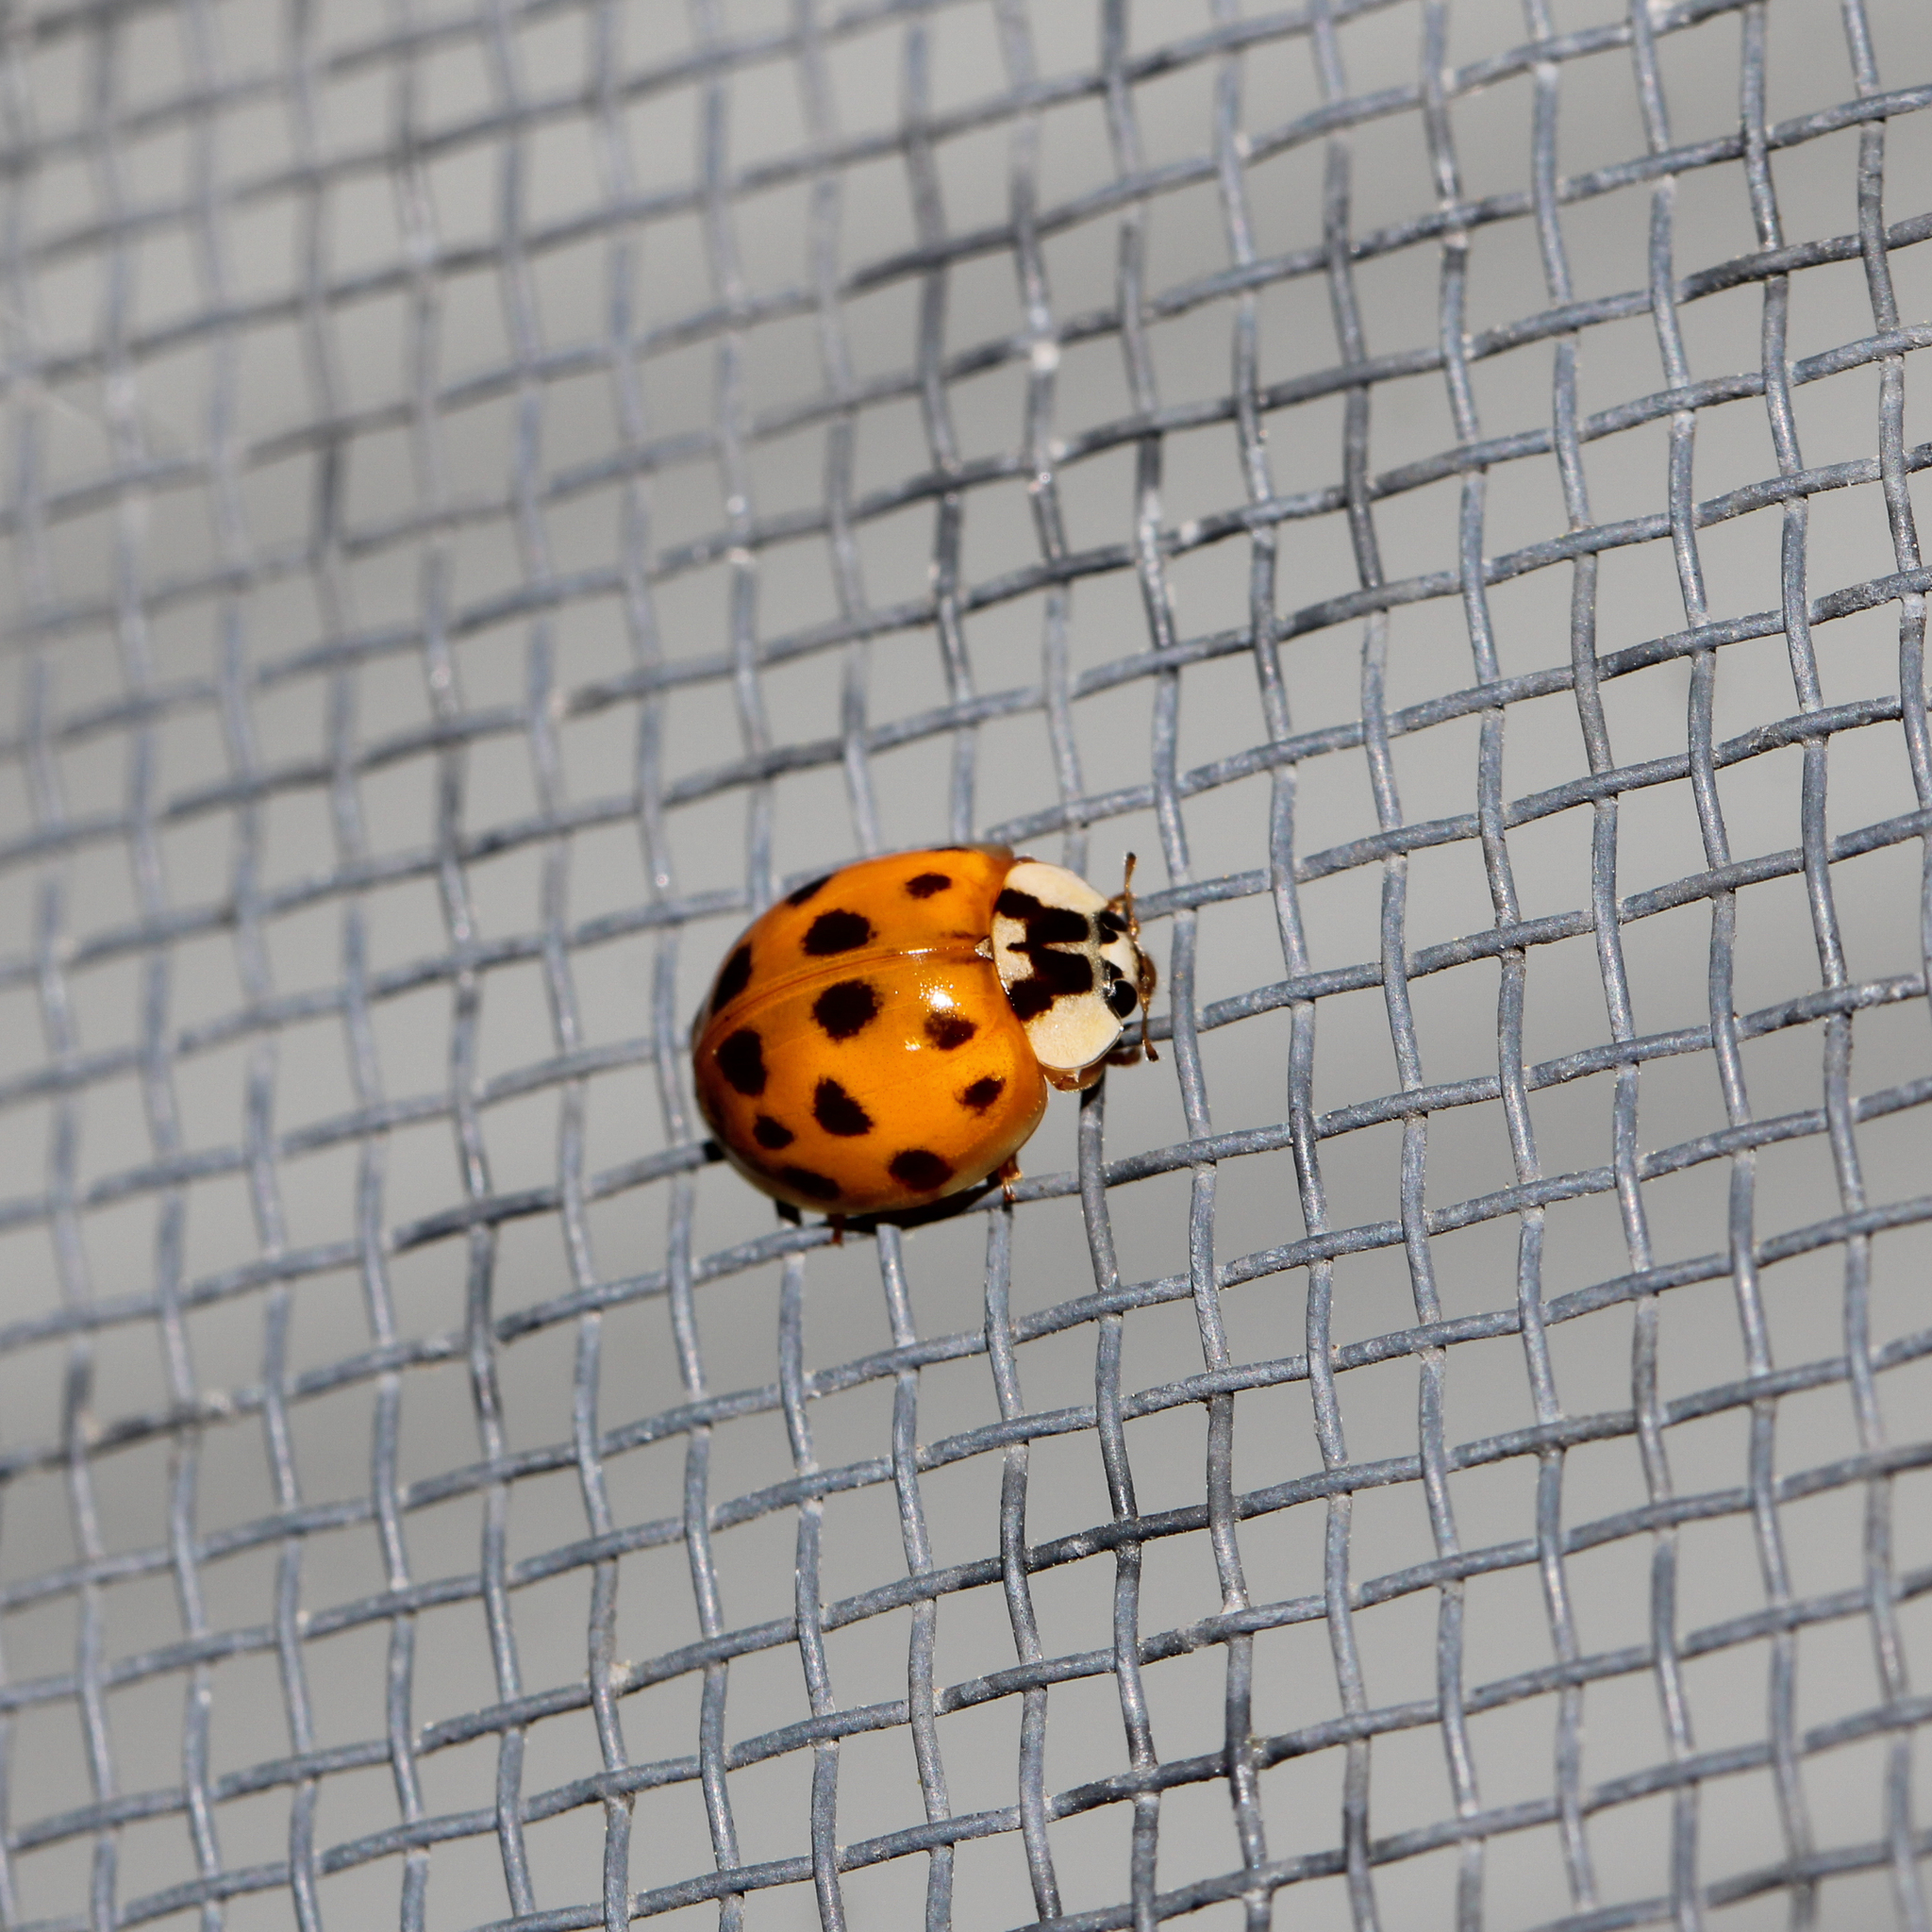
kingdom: Animalia
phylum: Arthropoda
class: Insecta
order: Coleoptera
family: Coccinellidae
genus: Harmonia
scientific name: Harmonia axyridis
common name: Harlequin ladybird
